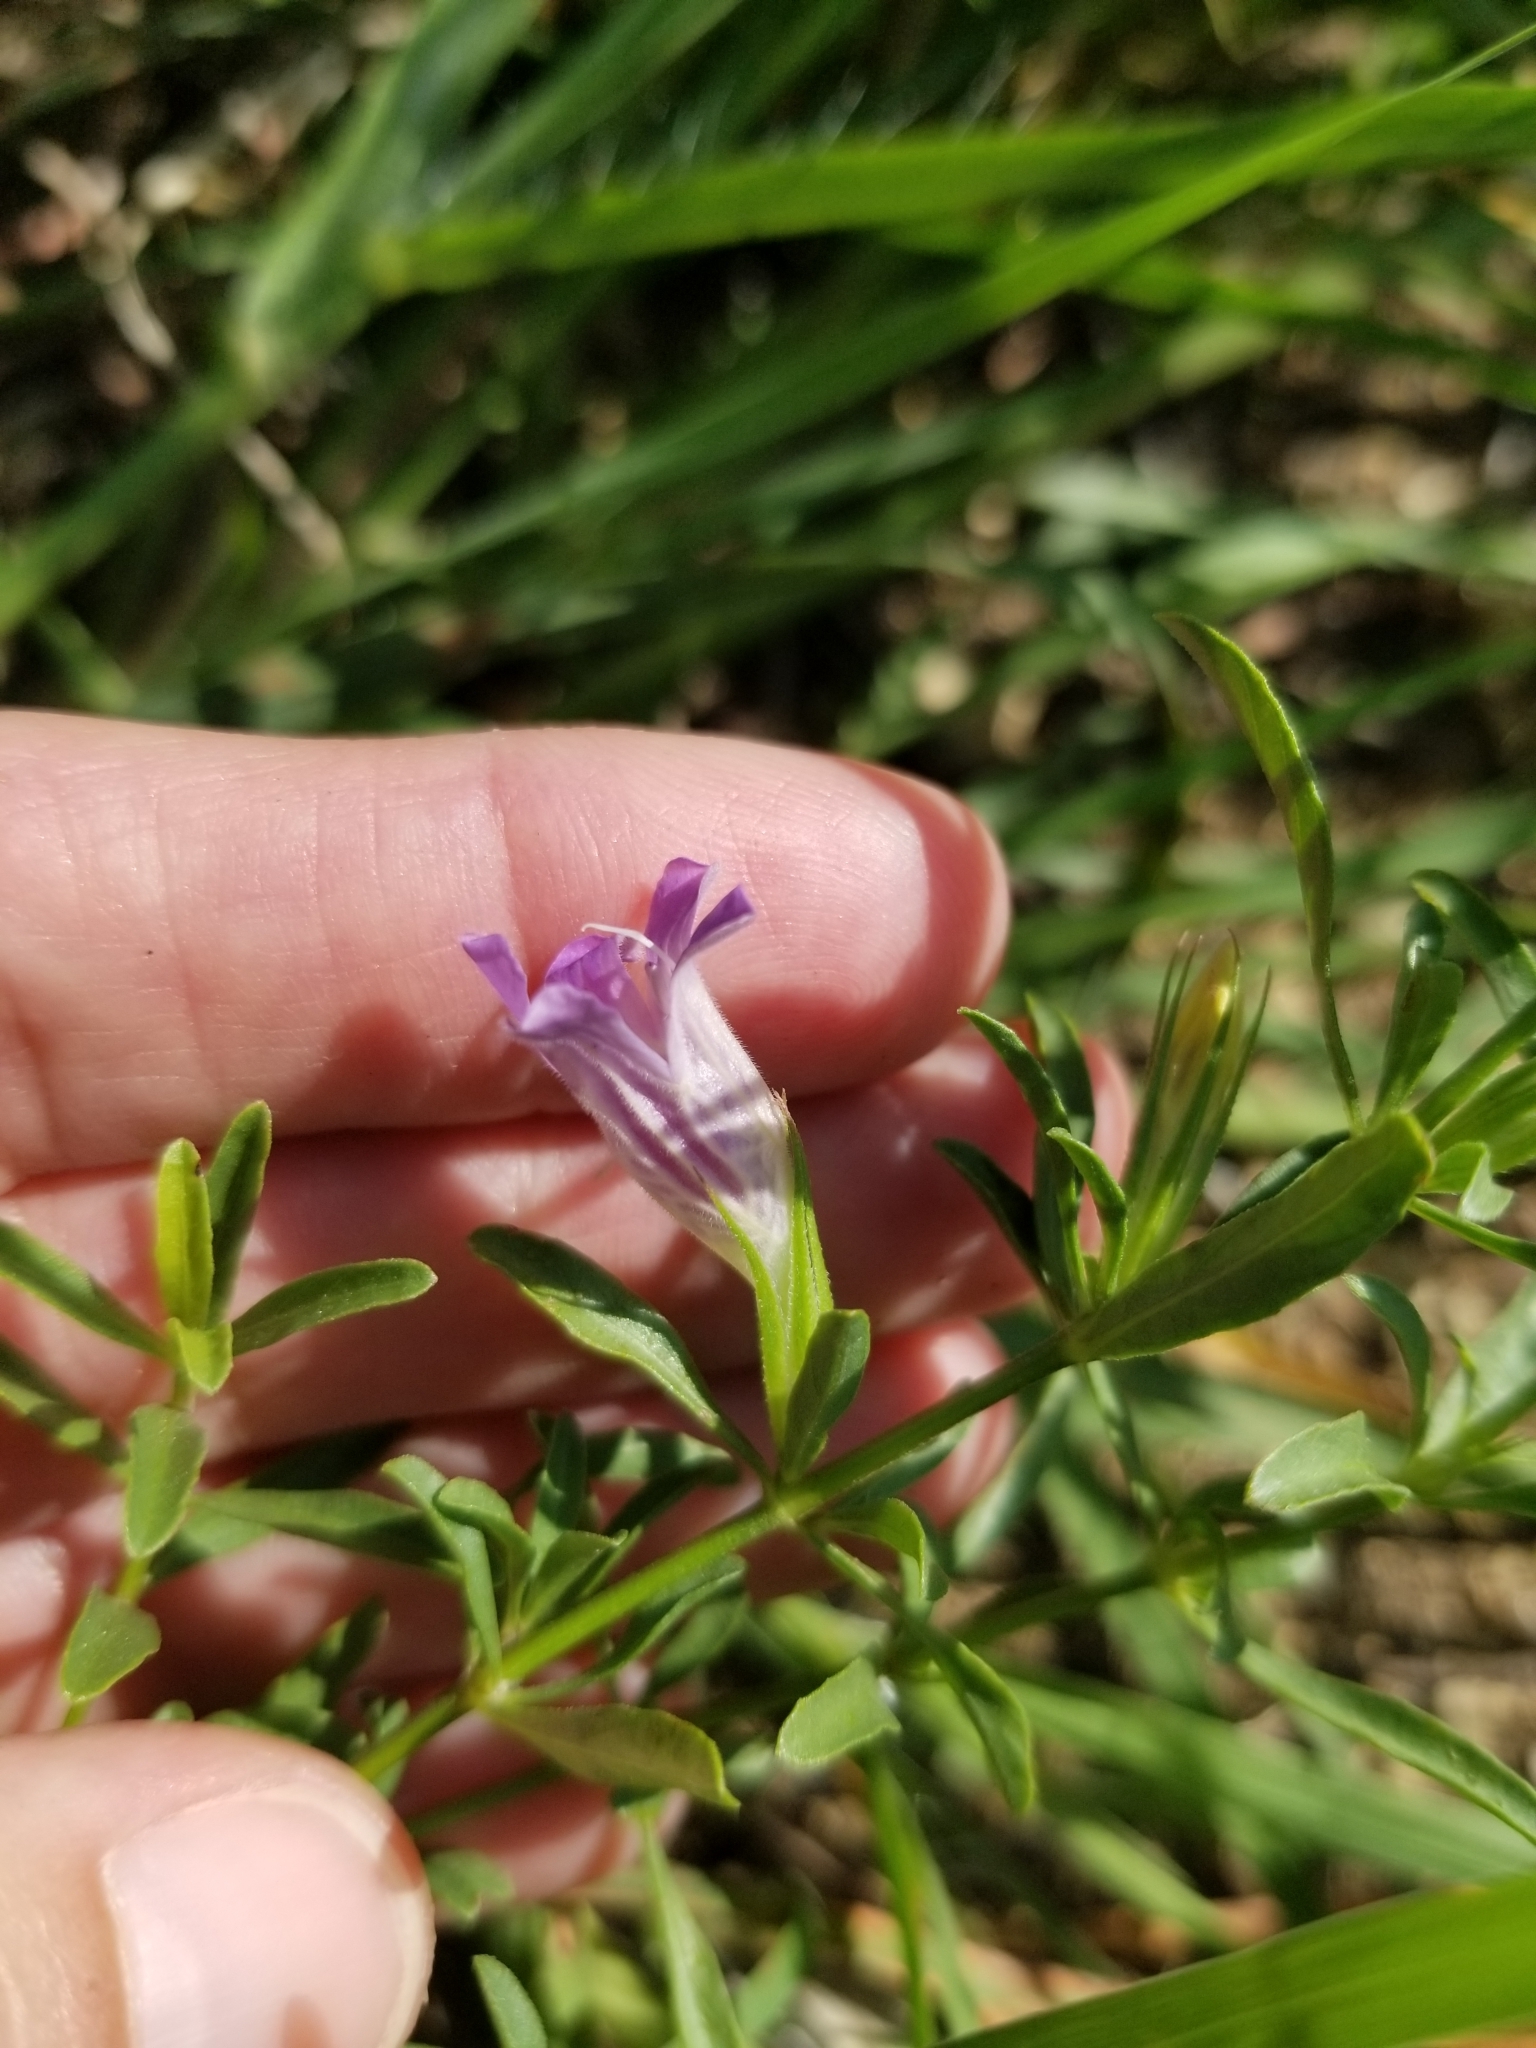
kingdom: Plantae
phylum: Tracheophyta
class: Magnoliopsida
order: Lamiales
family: Acanthaceae
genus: Dyschoriste
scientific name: Dyschoriste linearis
